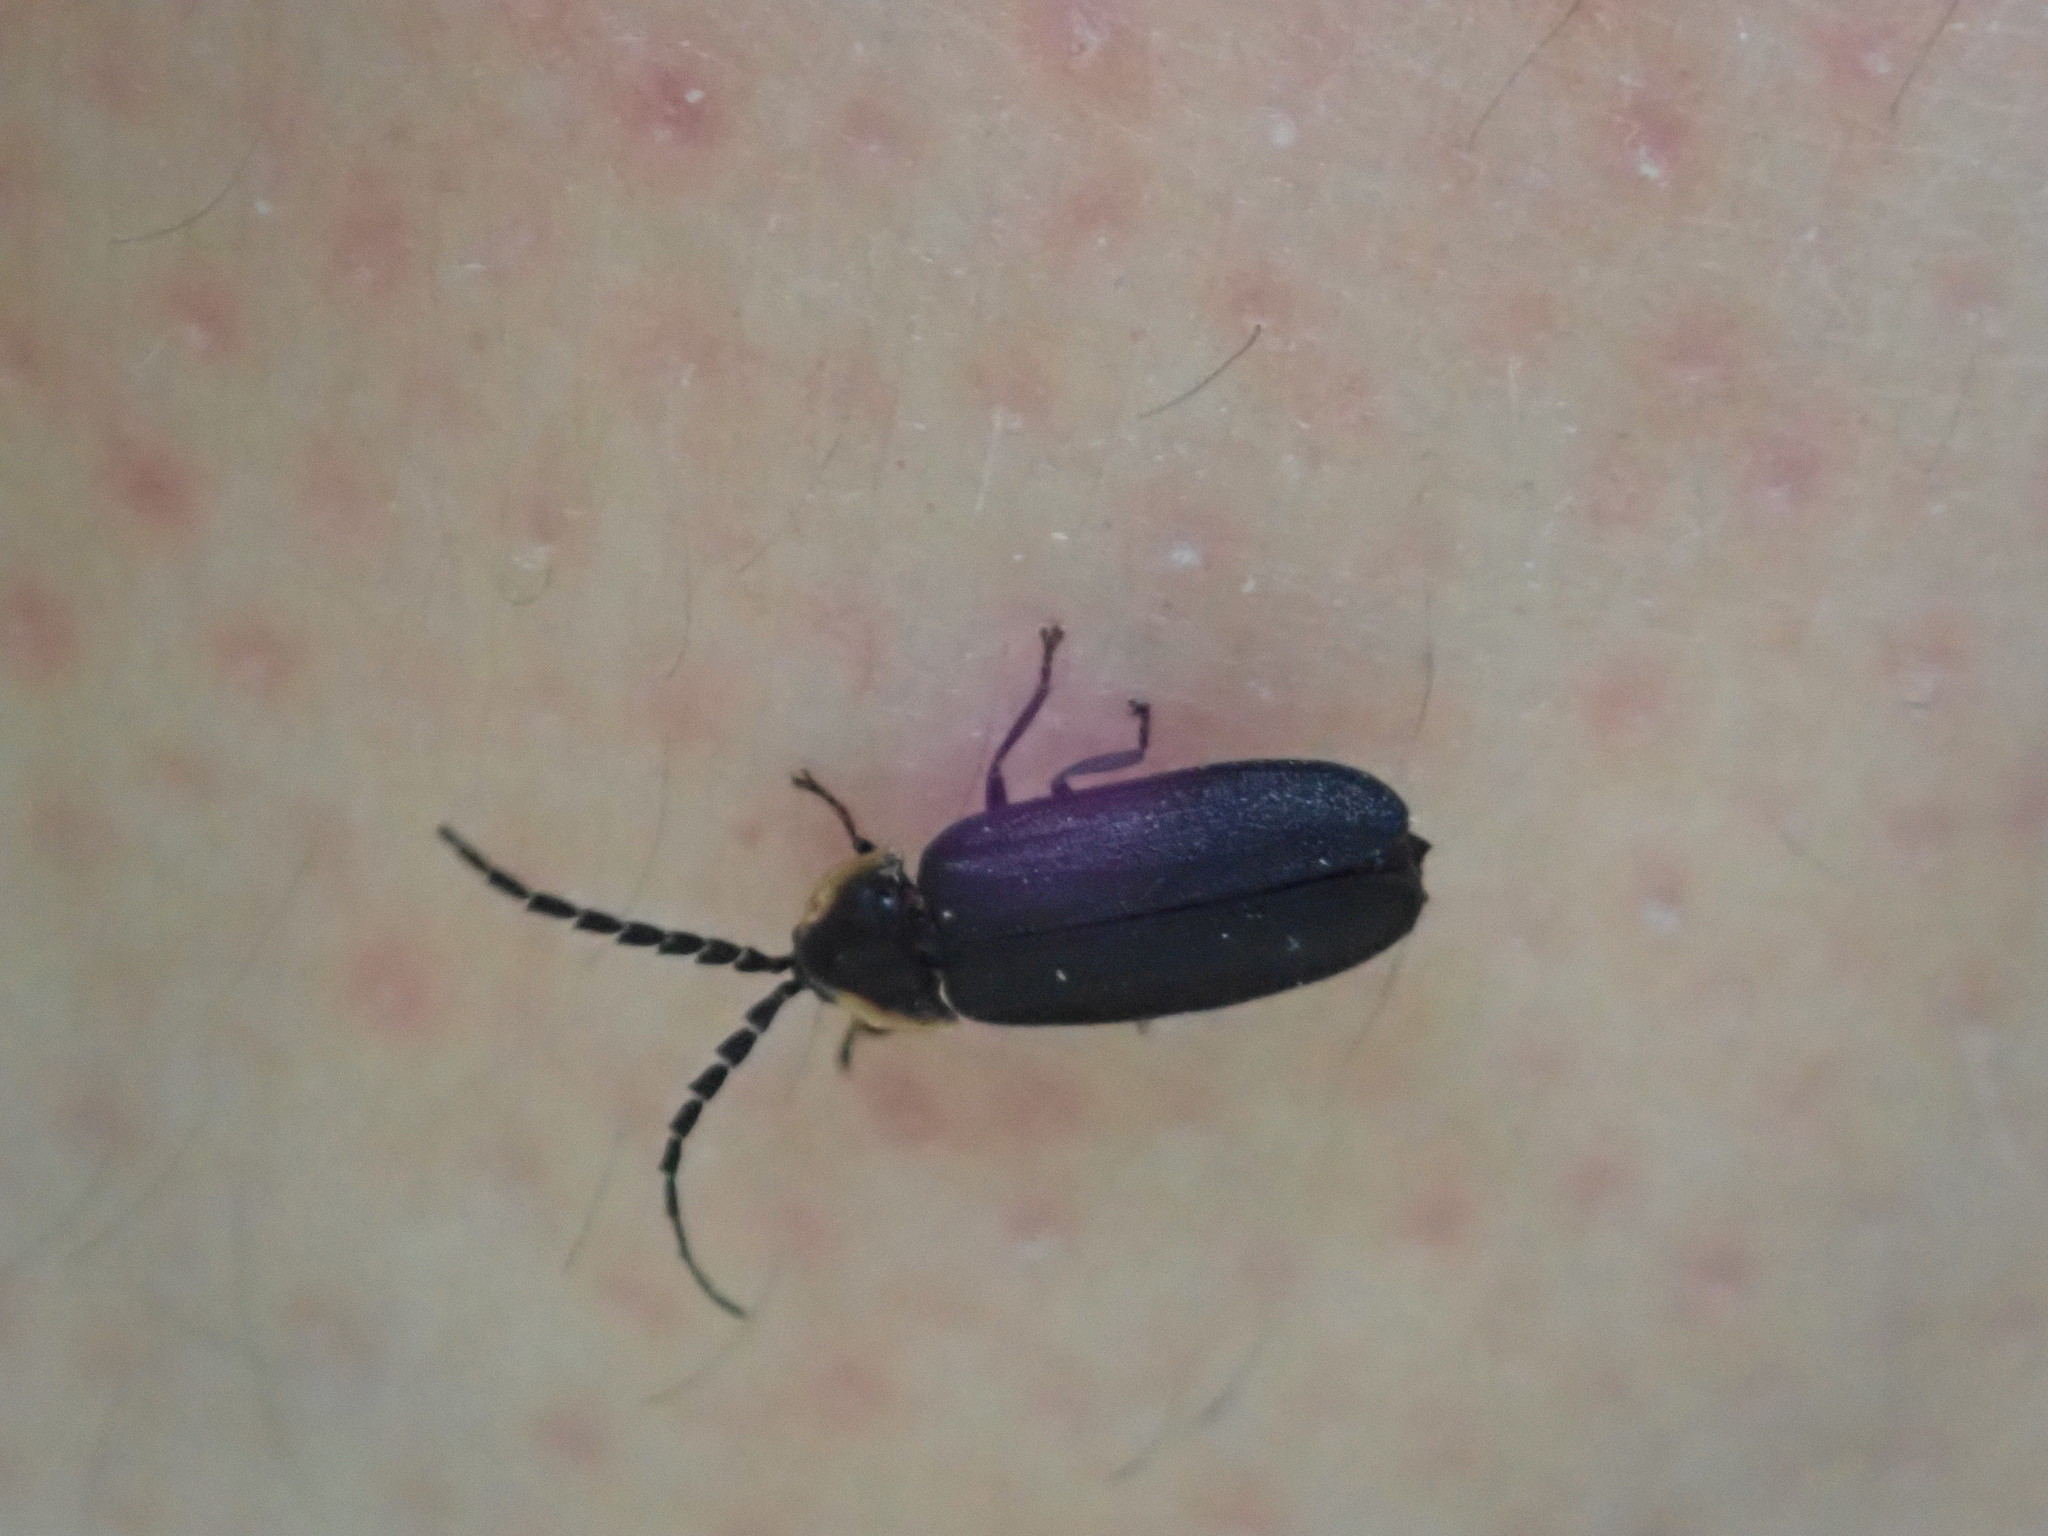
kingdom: Animalia
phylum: Arthropoda
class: Insecta
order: Coleoptera
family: Lampyridae
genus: Lucidota
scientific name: Lucidota atra
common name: Black firefly
